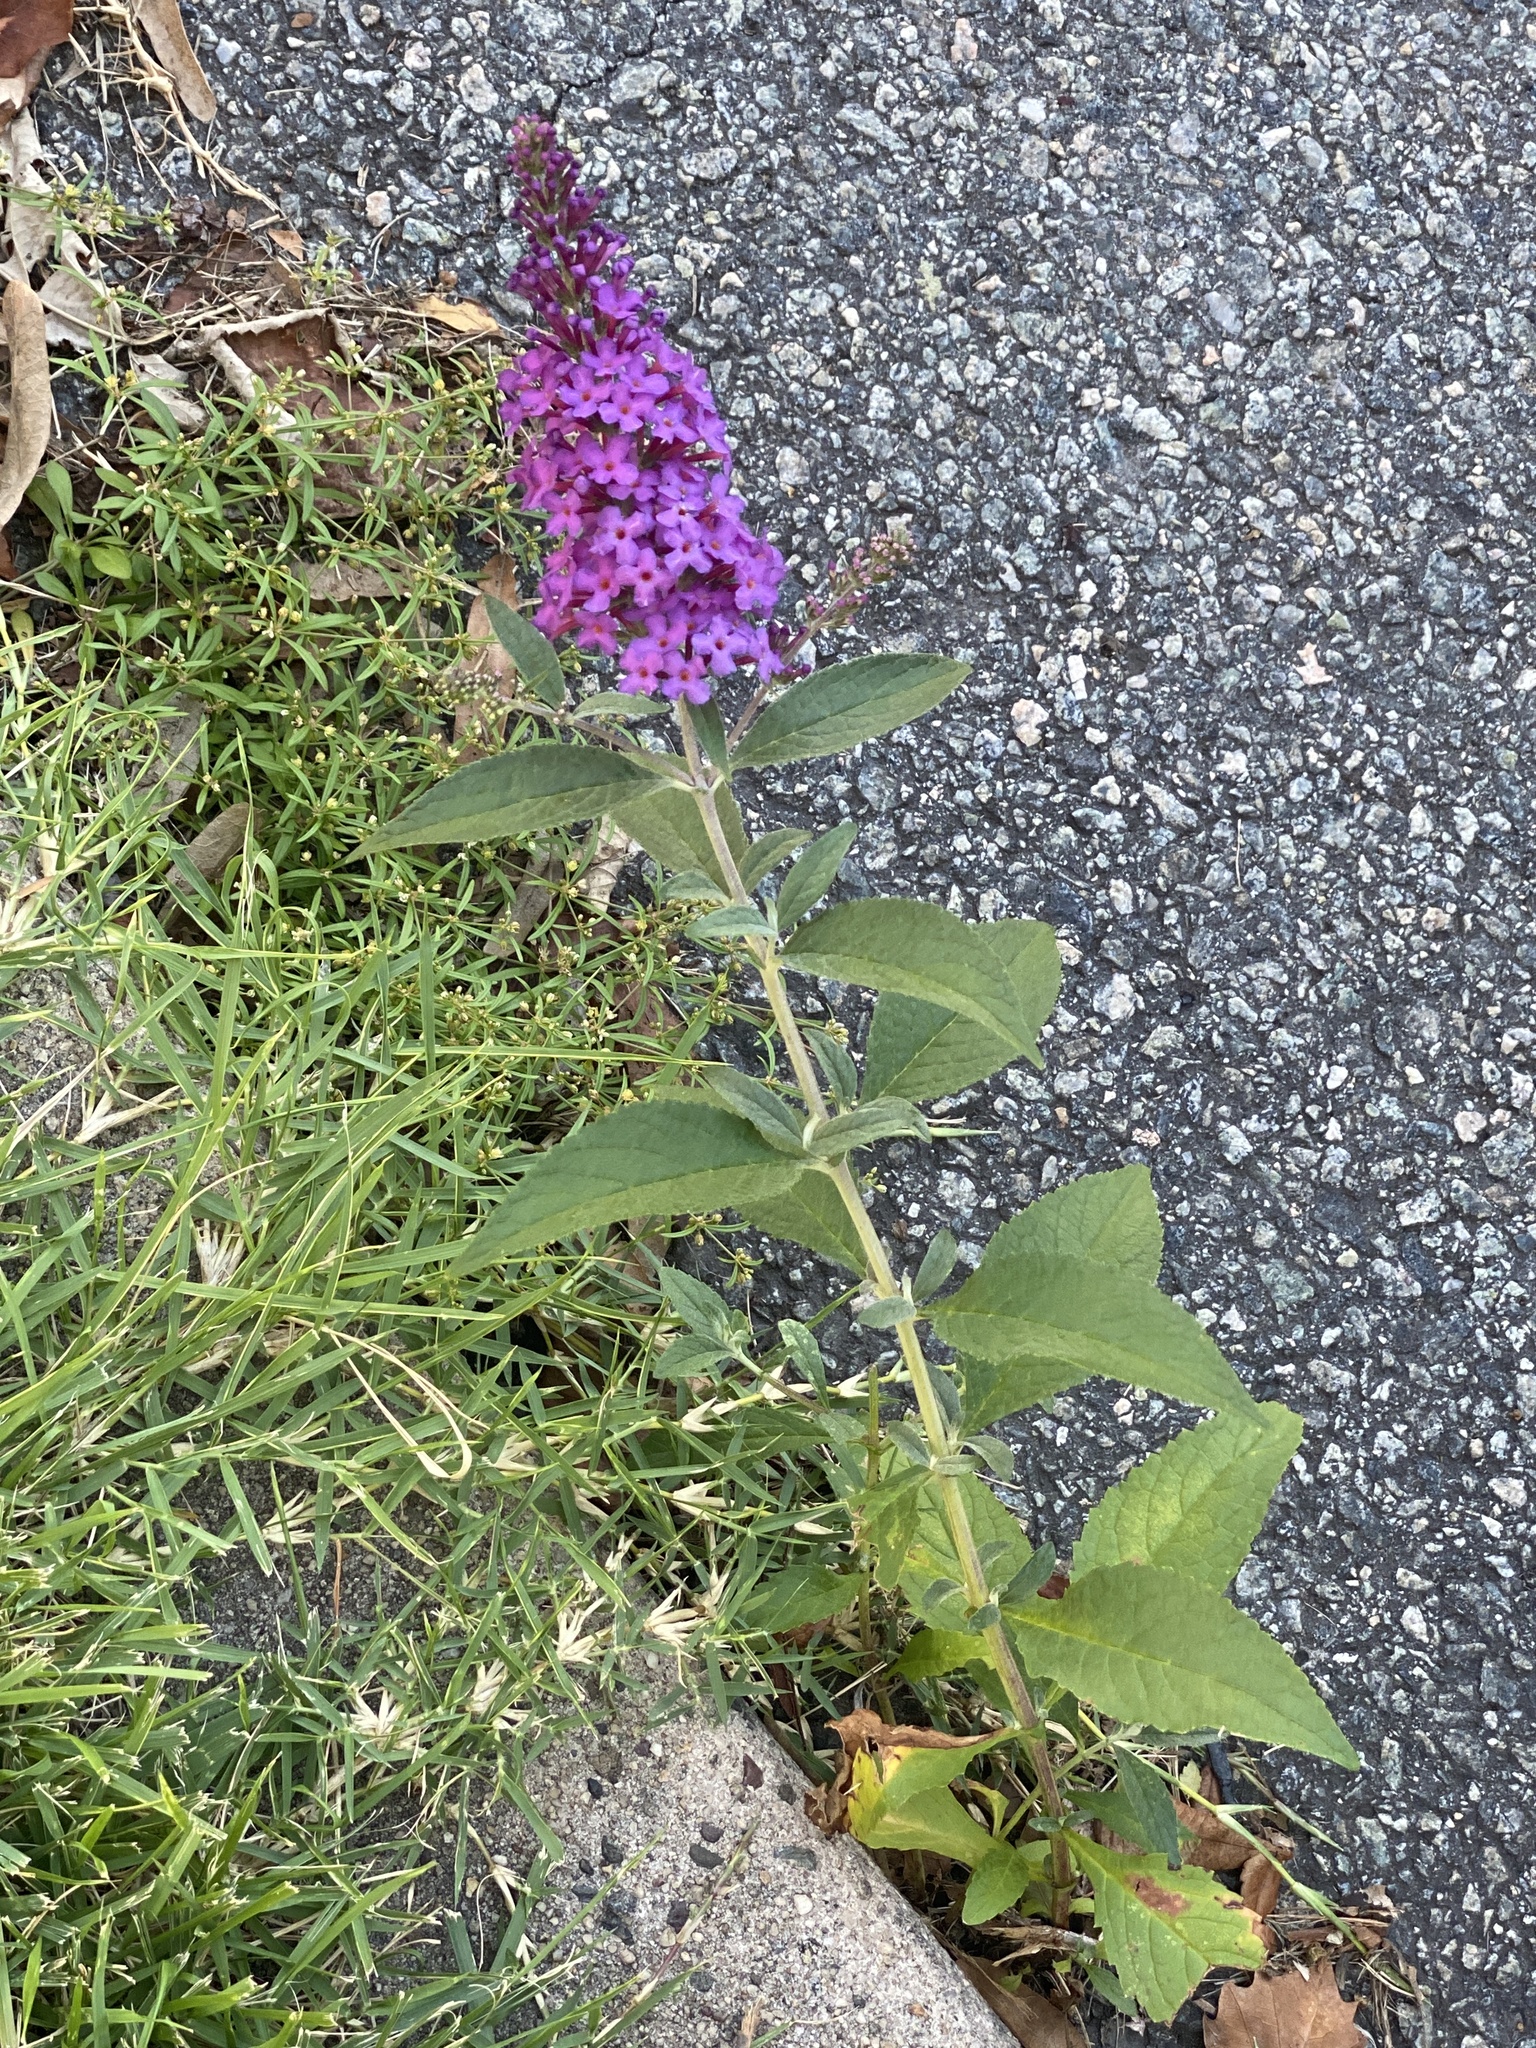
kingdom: Plantae
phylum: Tracheophyta
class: Magnoliopsida
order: Lamiales
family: Scrophulariaceae
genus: Buddleja
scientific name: Buddleja davidii
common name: Butterfly-bush
